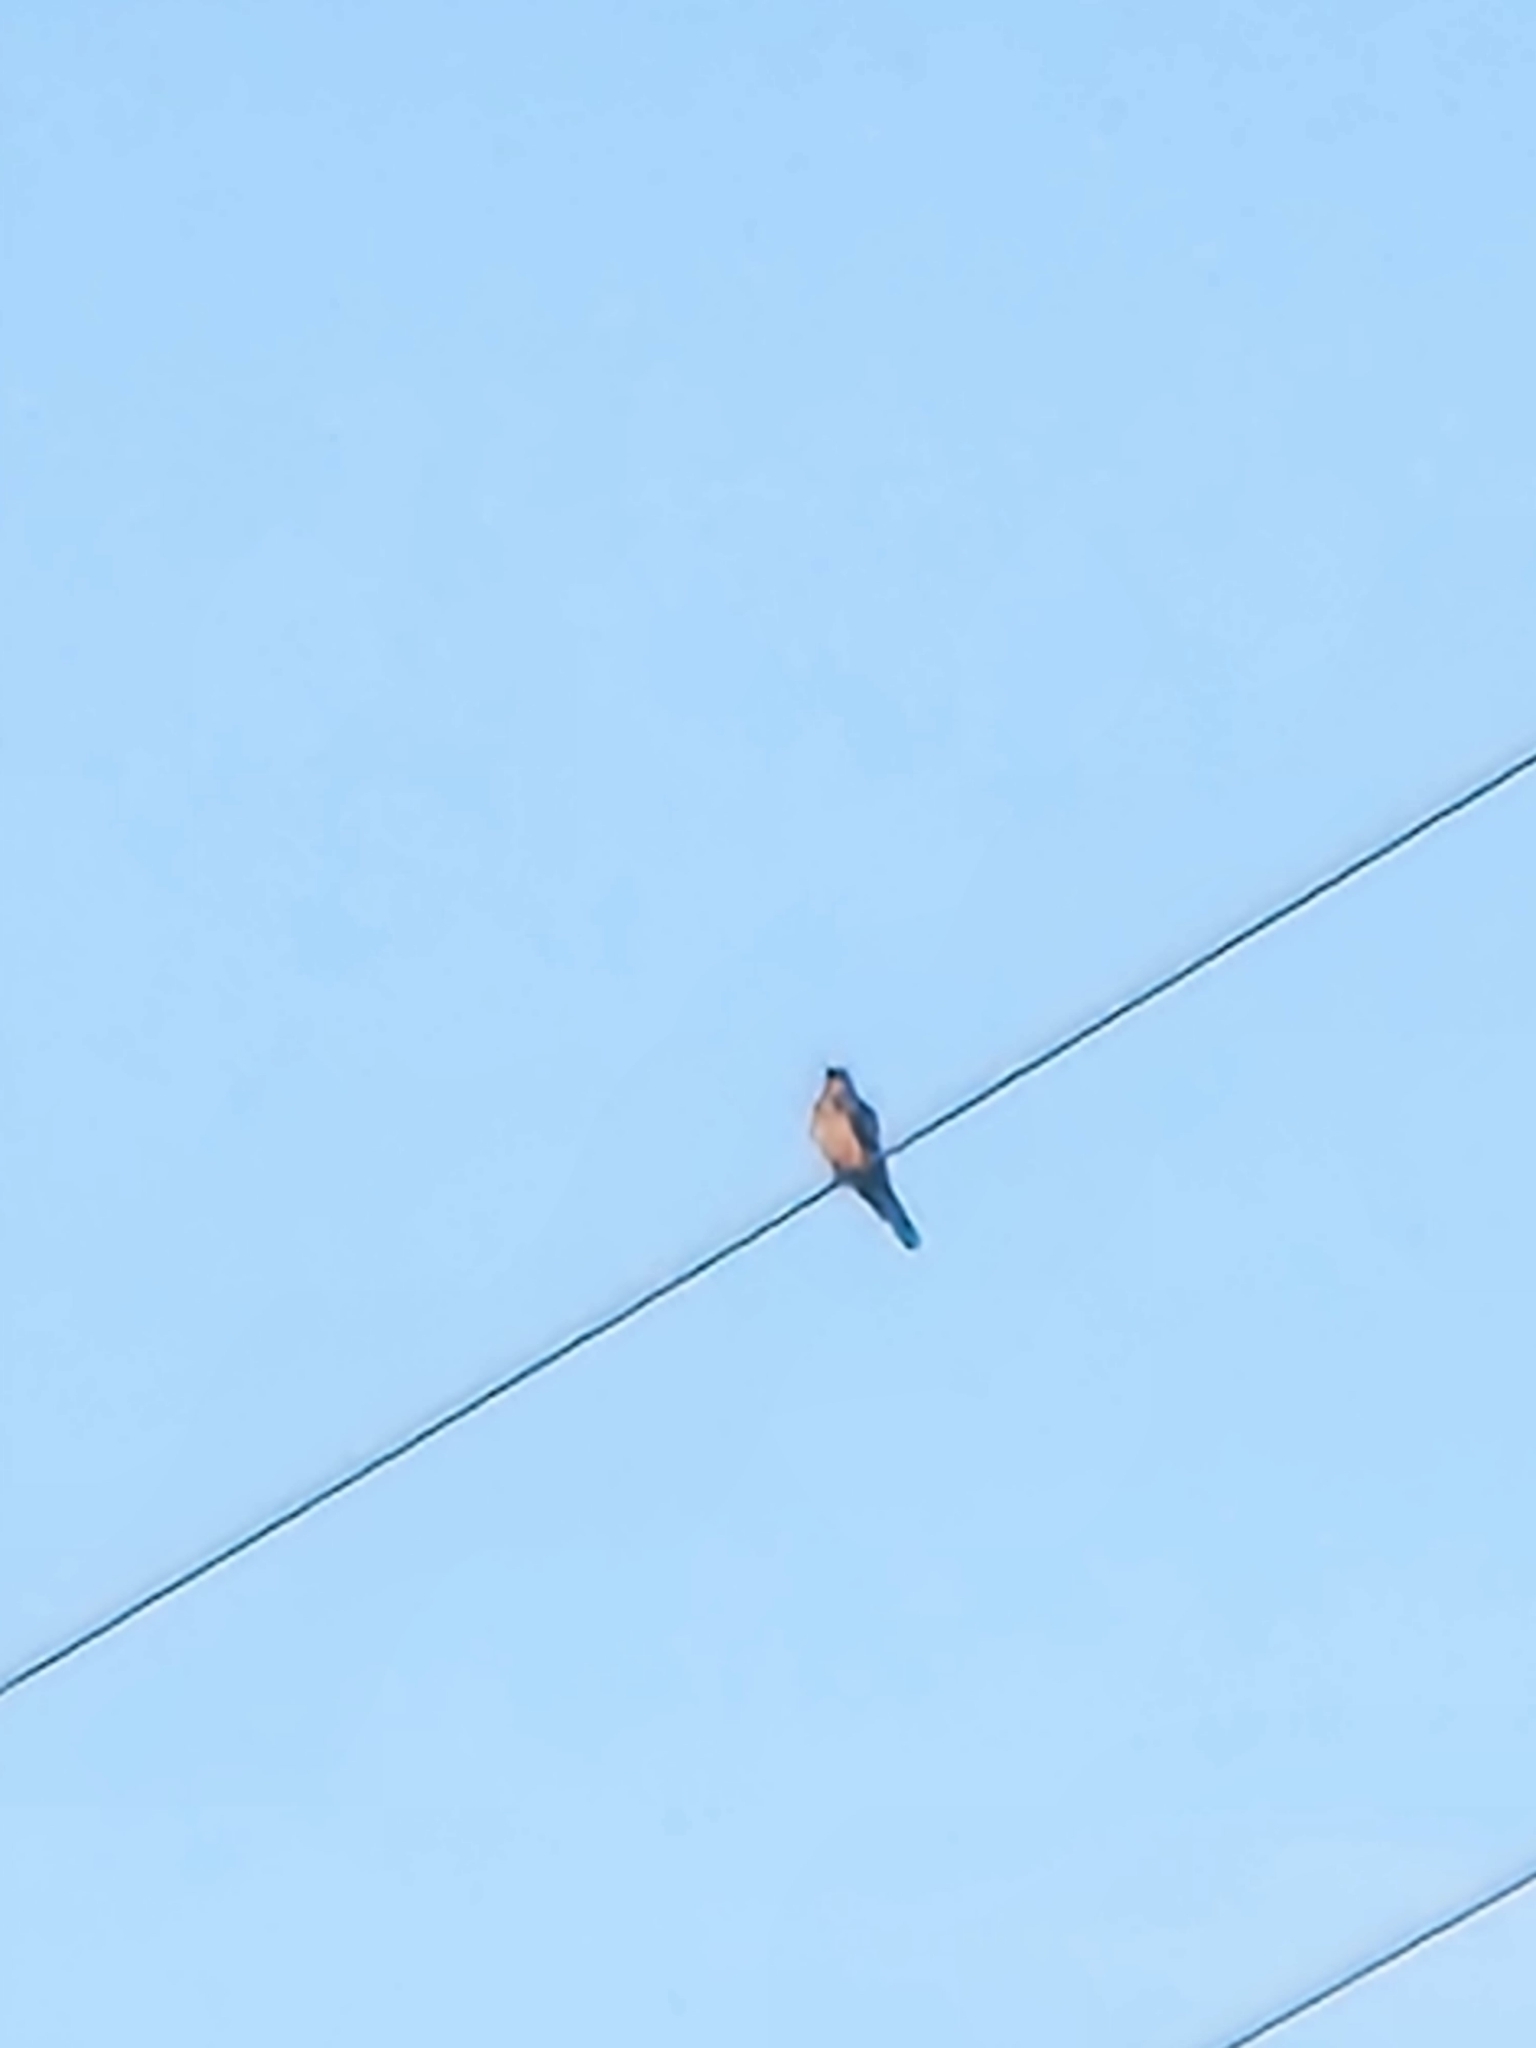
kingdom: Animalia
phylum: Chordata
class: Aves
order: Passeriformes
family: Tyrannidae
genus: Tyrannus
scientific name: Tyrannus tyrannus
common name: Eastern kingbird
